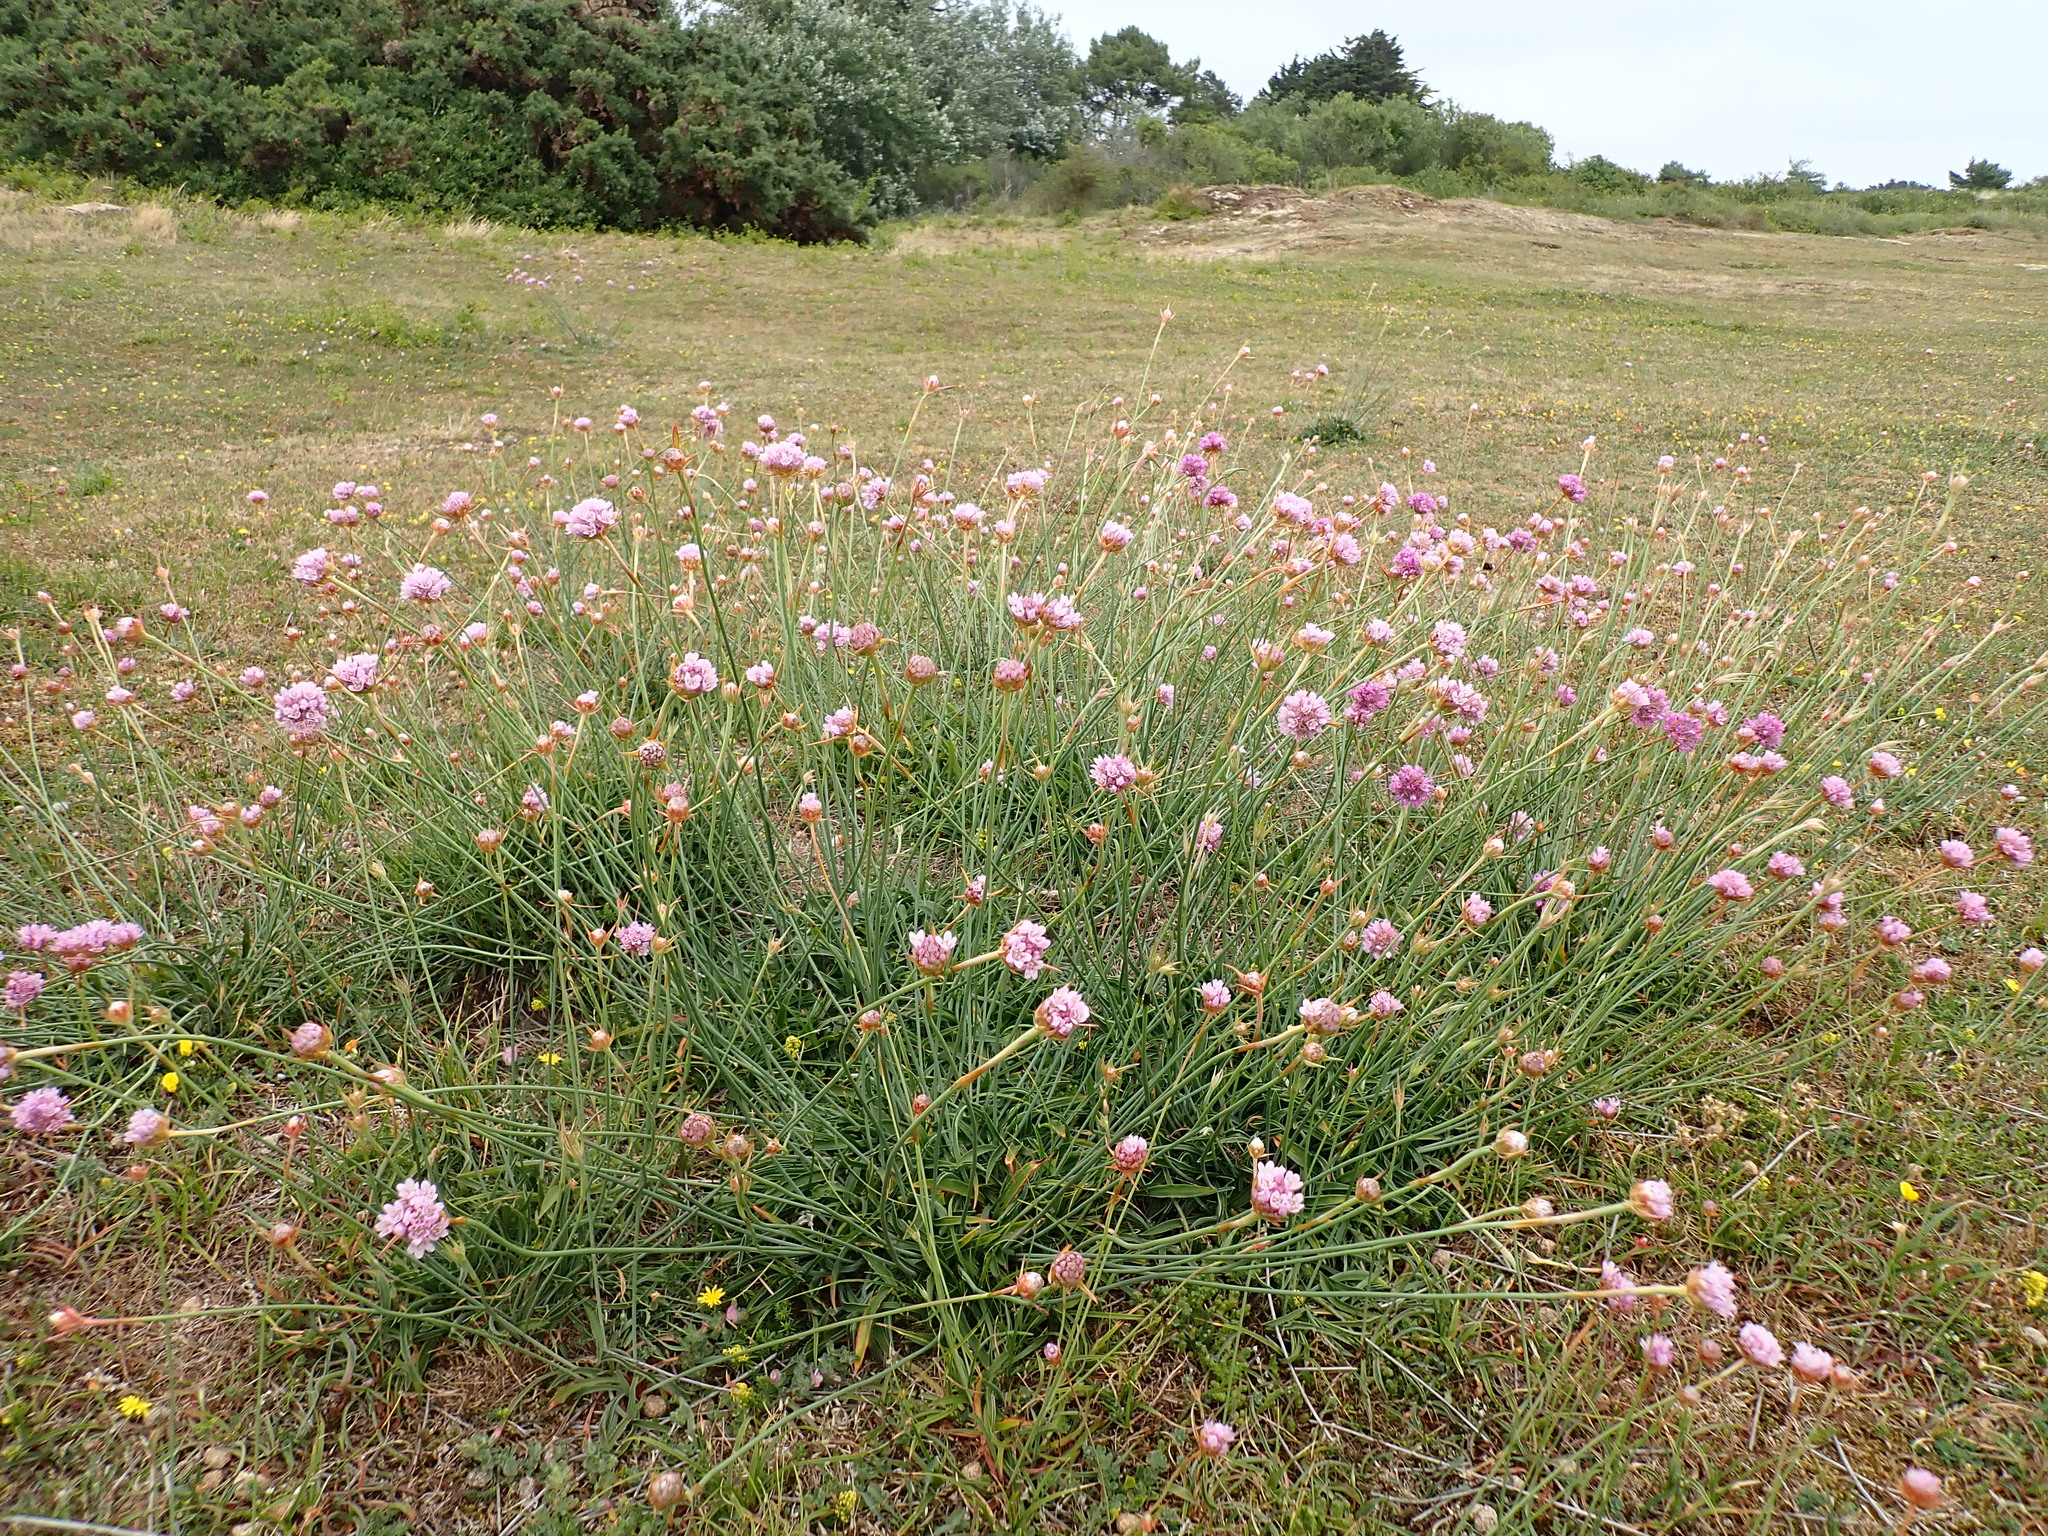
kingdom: Plantae
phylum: Tracheophyta
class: Magnoliopsida
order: Caryophyllales
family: Plumbaginaceae
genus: Armeria
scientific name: Armeria arenaria
